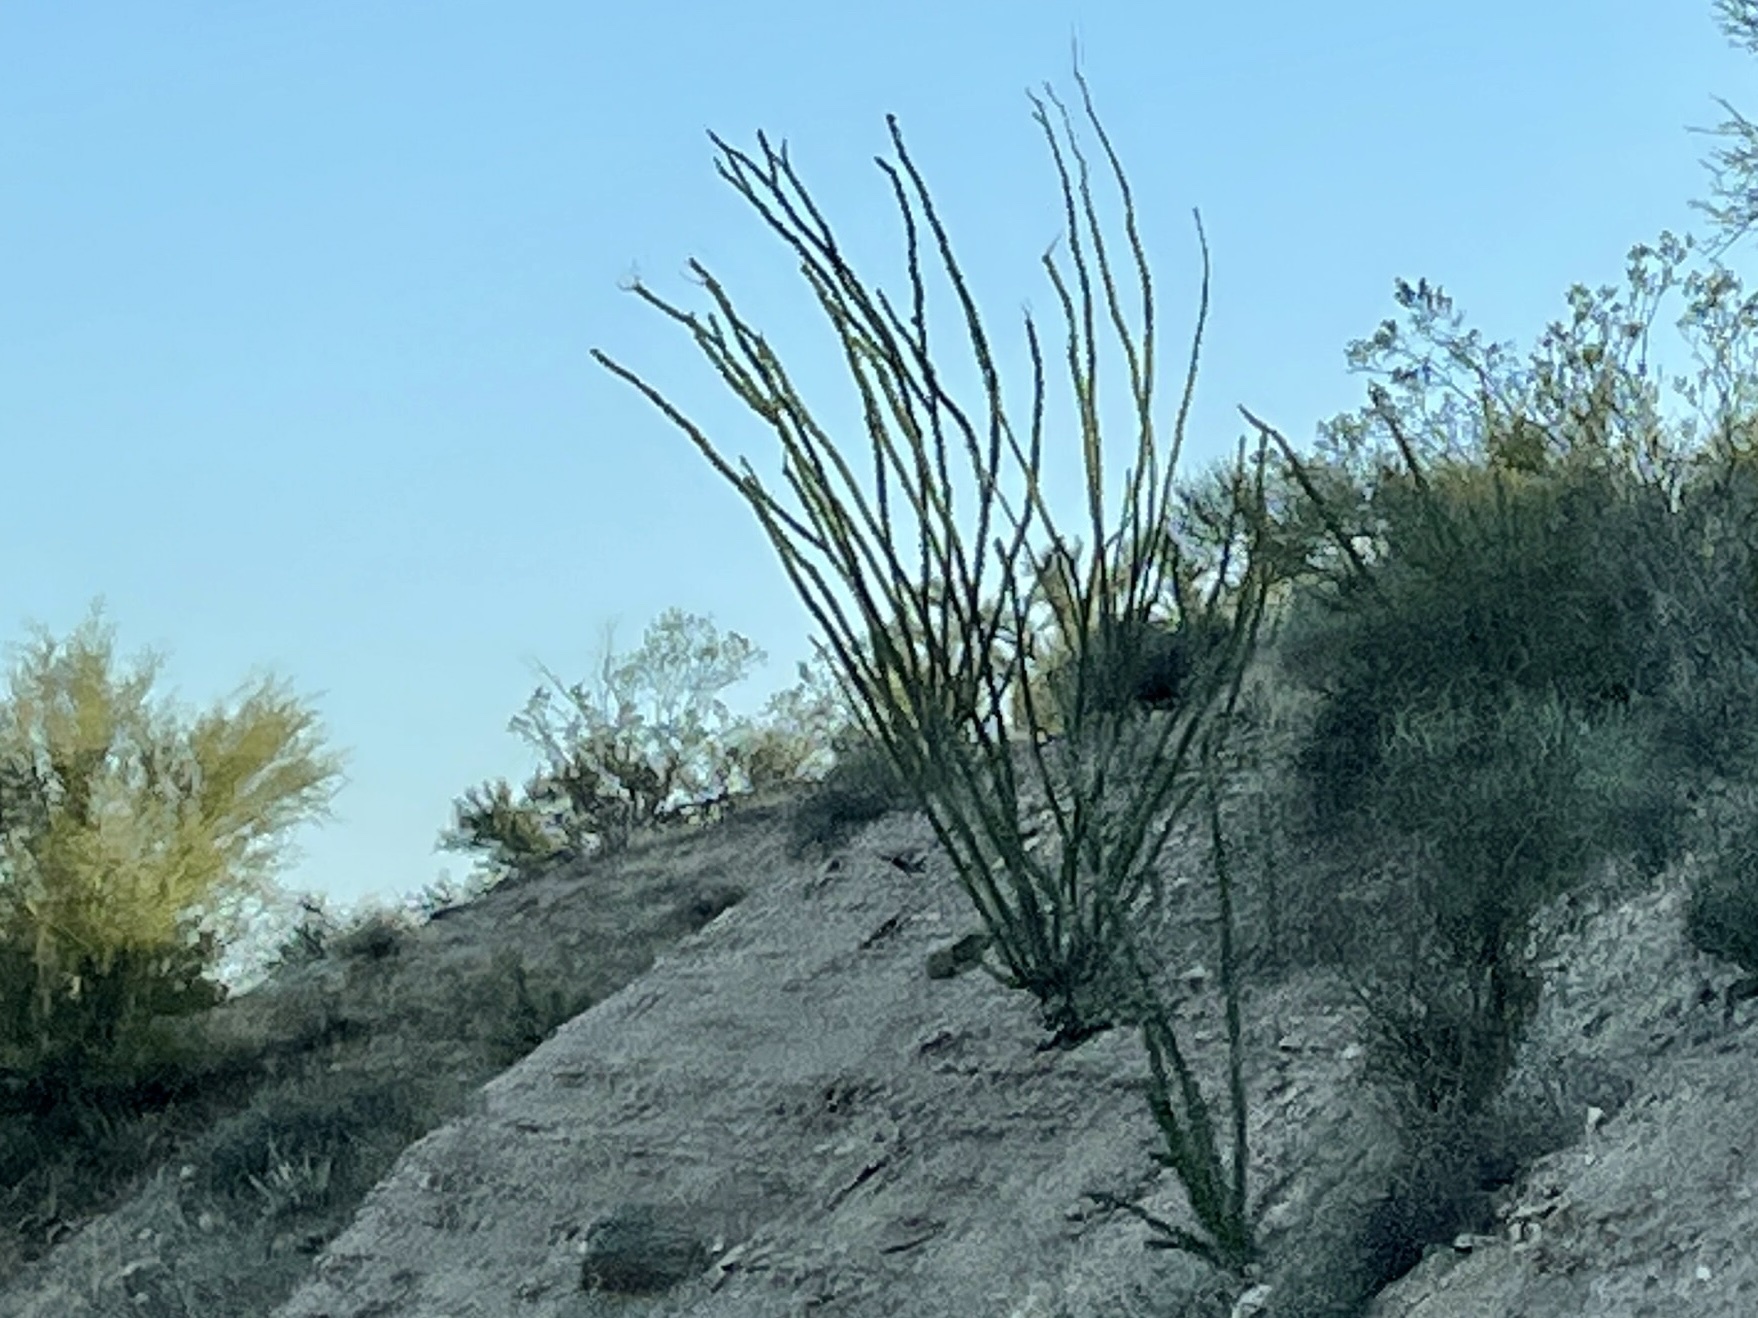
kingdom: Plantae
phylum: Tracheophyta
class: Magnoliopsida
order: Ericales
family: Fouquieriaceae
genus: Fouquieria
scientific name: Fouquieria splendens
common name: Vine-cactus
